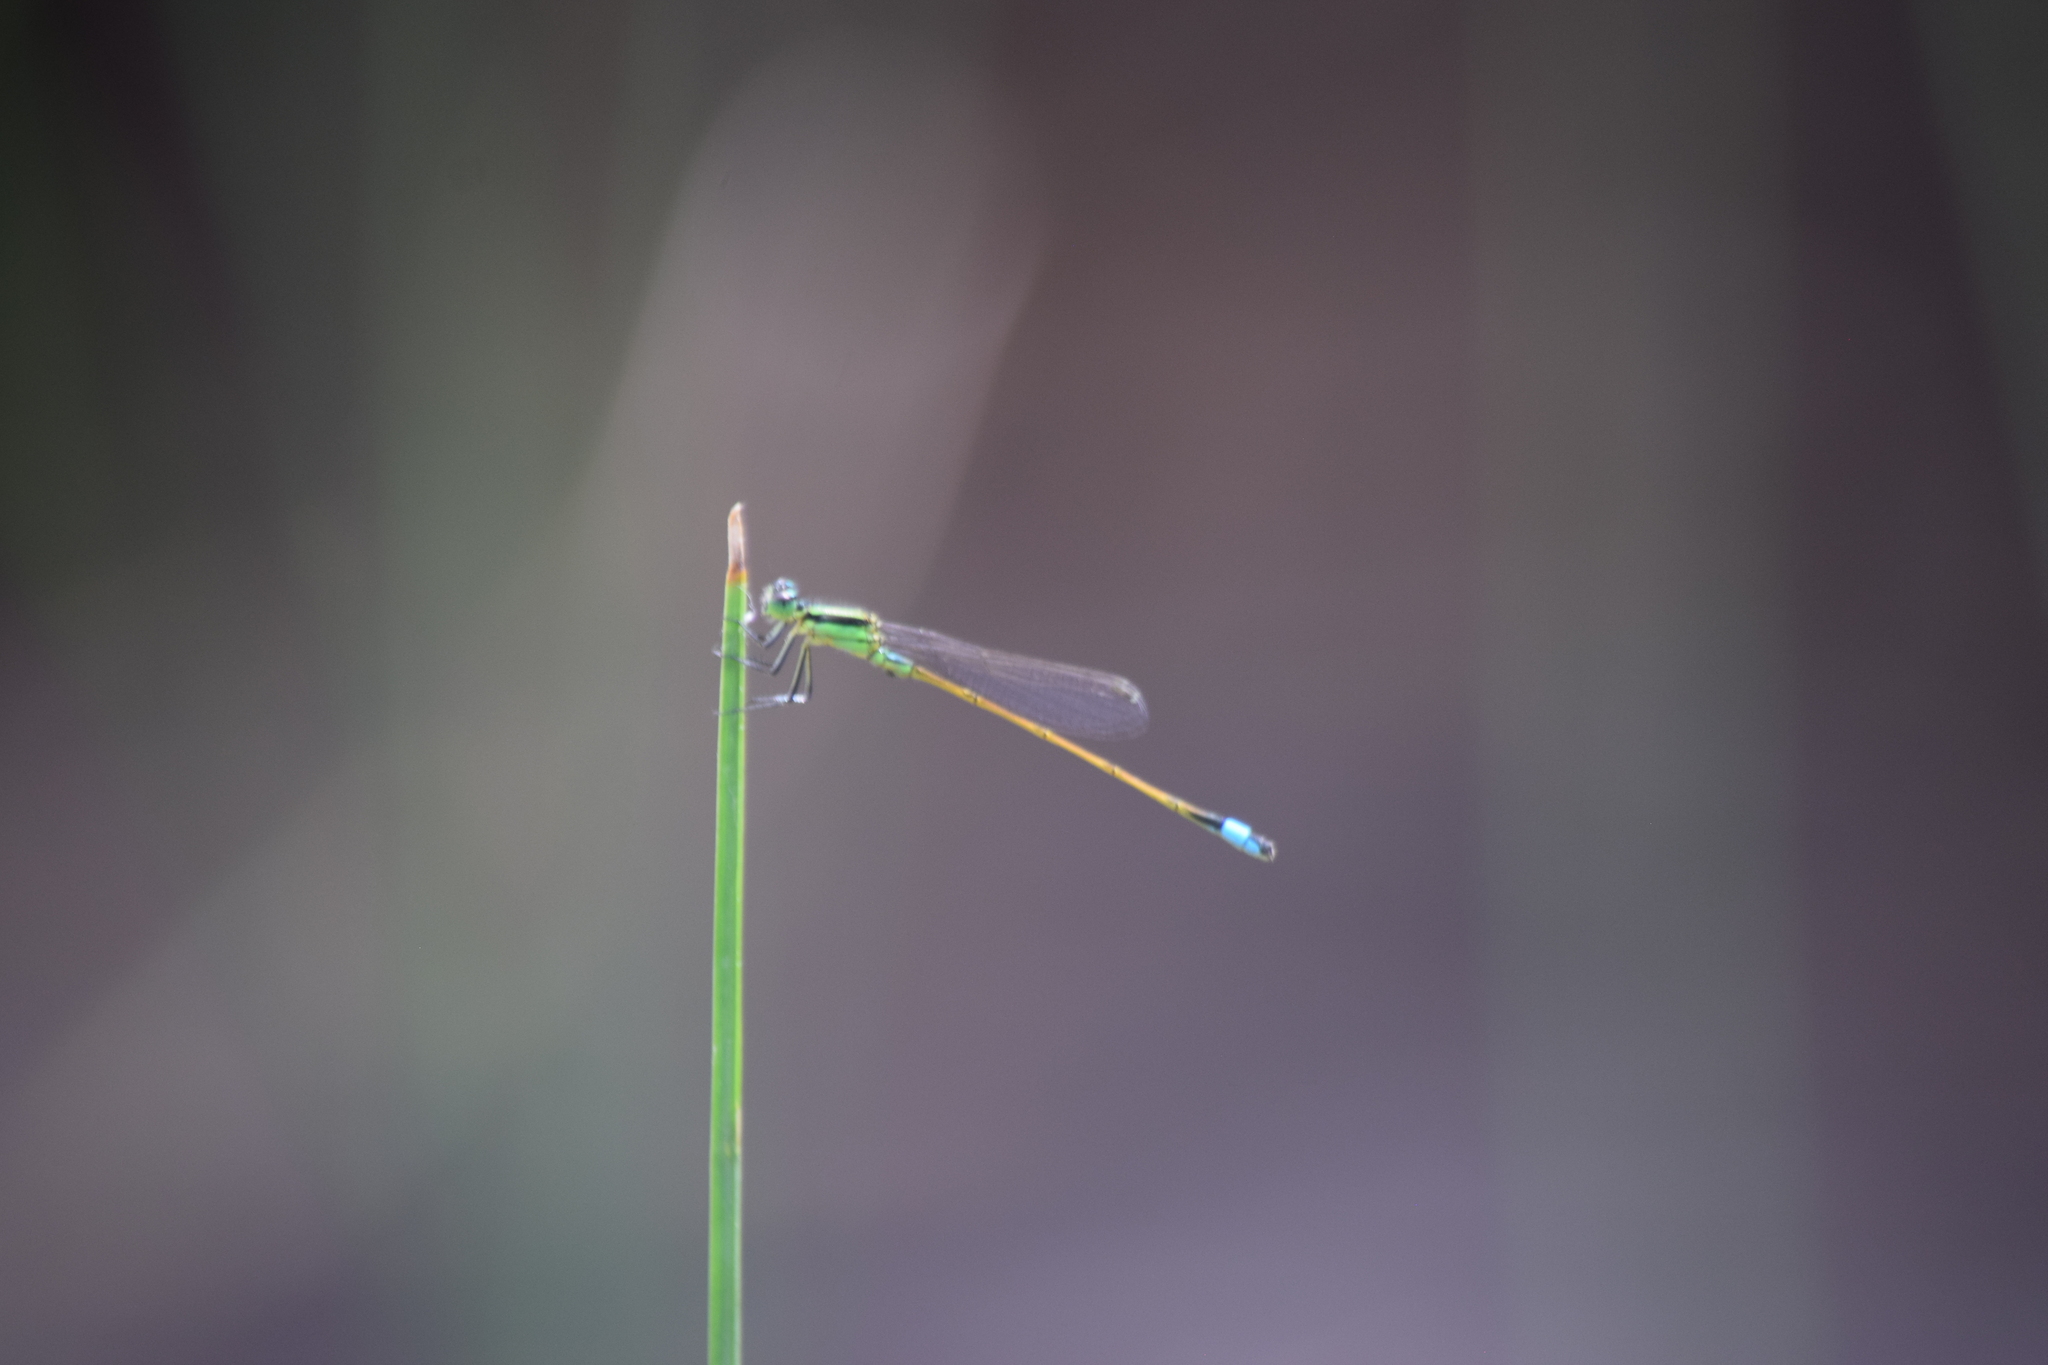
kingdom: Animalia
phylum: Arthropoda
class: Insecta
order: Odonata
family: Coenagrionidae
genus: Ischnura
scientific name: Ischnura ramburii
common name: Rambur's forktail
